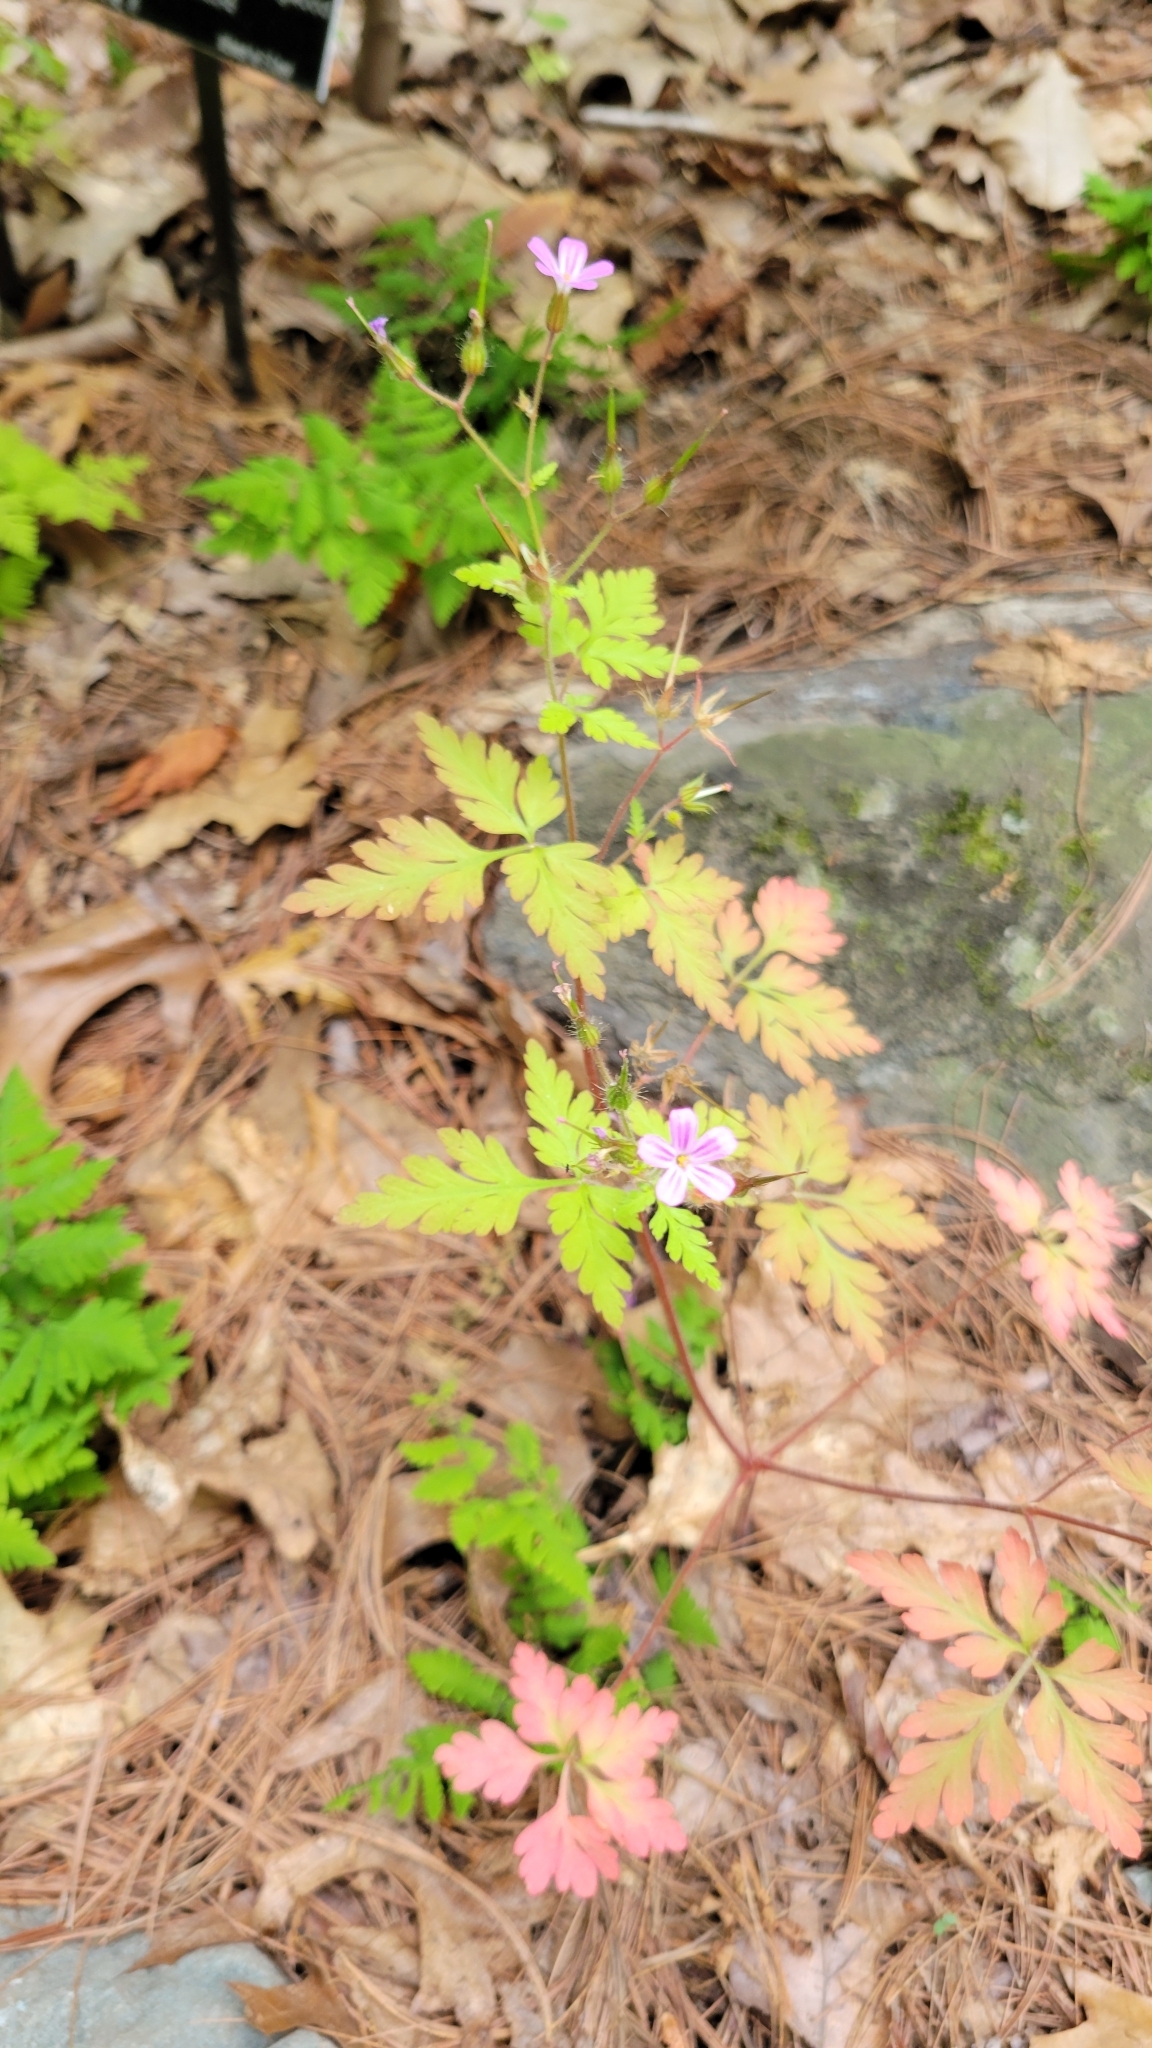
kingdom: Plantae
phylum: Tracheophyta
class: Magnoliopsida
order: Geraniales
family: Geraniaceae
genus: Geranium
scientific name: Geranium robertianum
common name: Herb-robert
